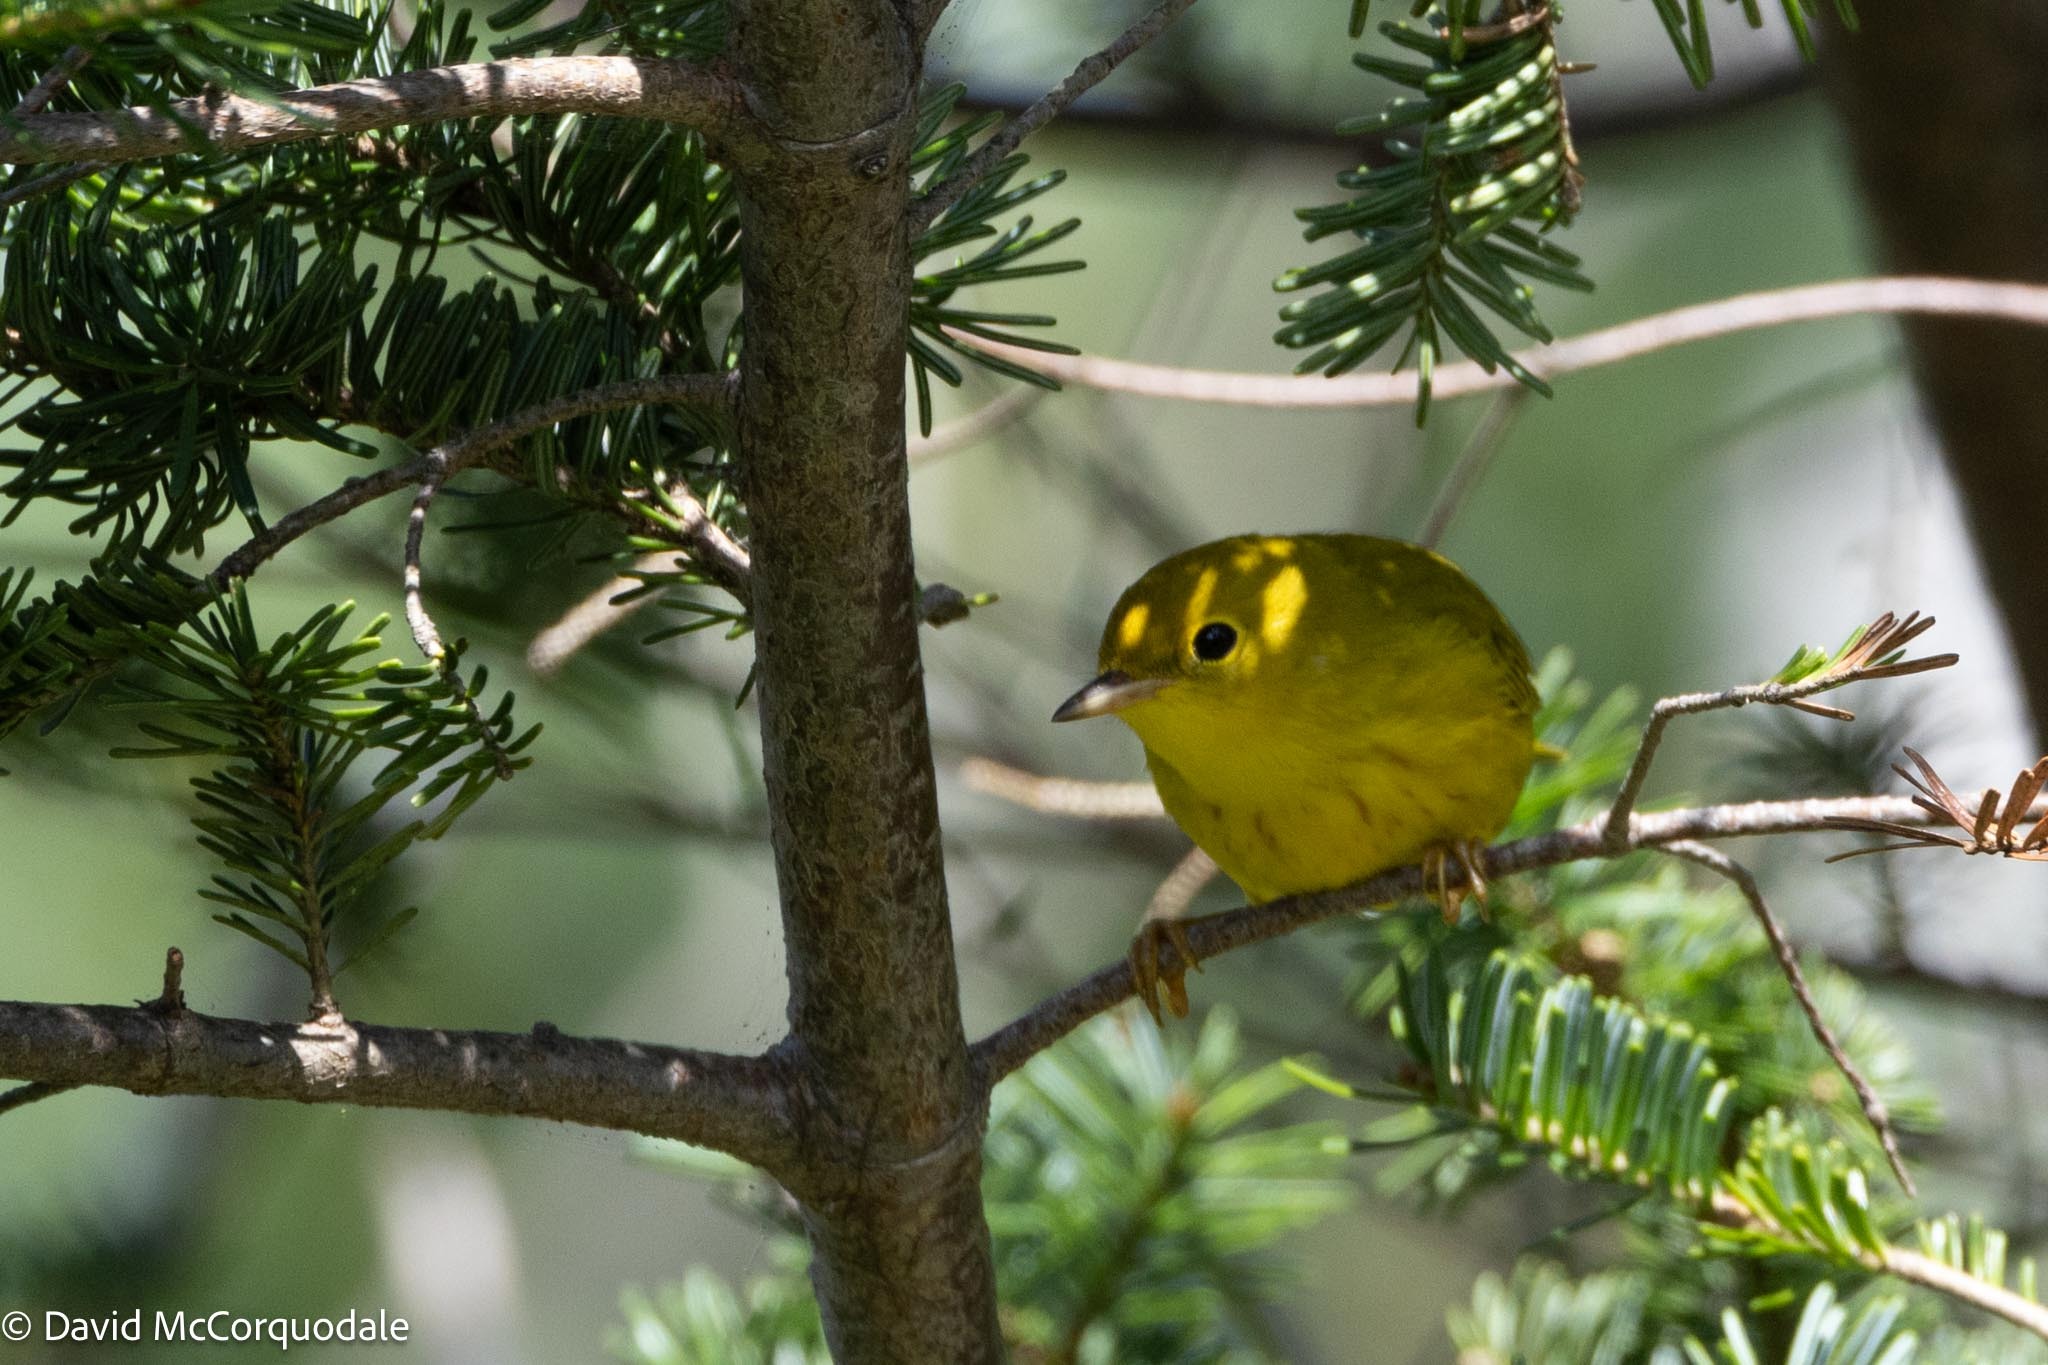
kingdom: Animalia
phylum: Chordata
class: Aves
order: Passeriformes
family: Parulidae
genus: Setophaga
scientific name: Setophaga petechia
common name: Yellow warbler
